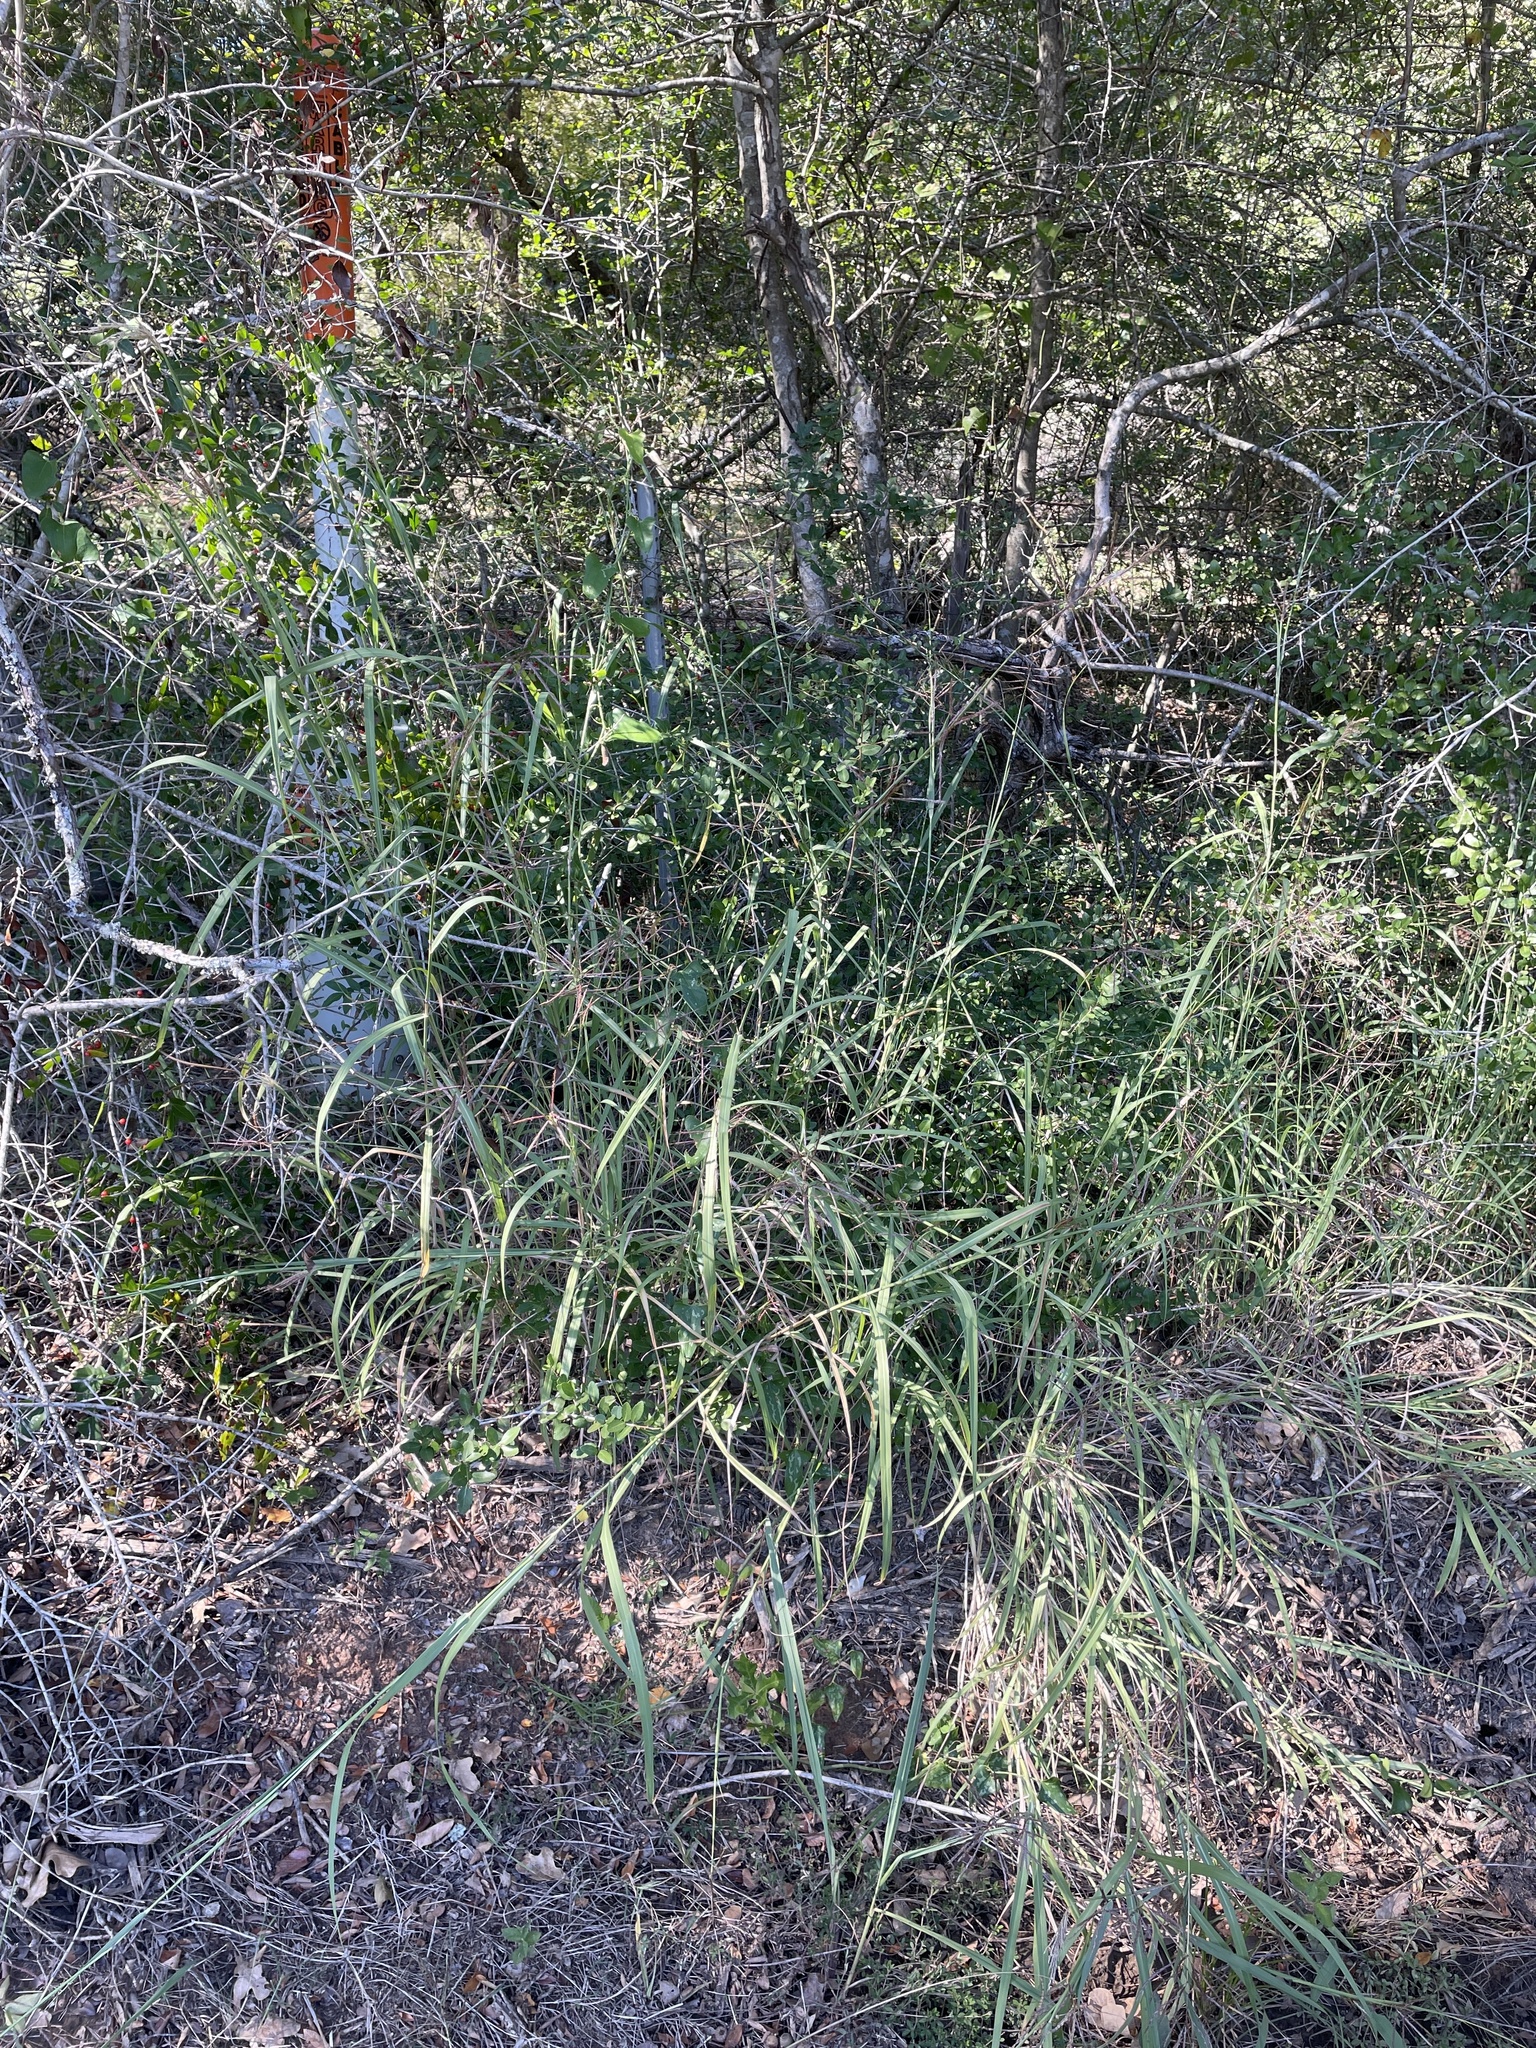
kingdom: Plantae
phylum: Tracheophyta
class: Liliopsida
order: Poales
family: Poaceae
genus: Bothriochloa
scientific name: Bothriochloa bladhii
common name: Caucasian bluestem
